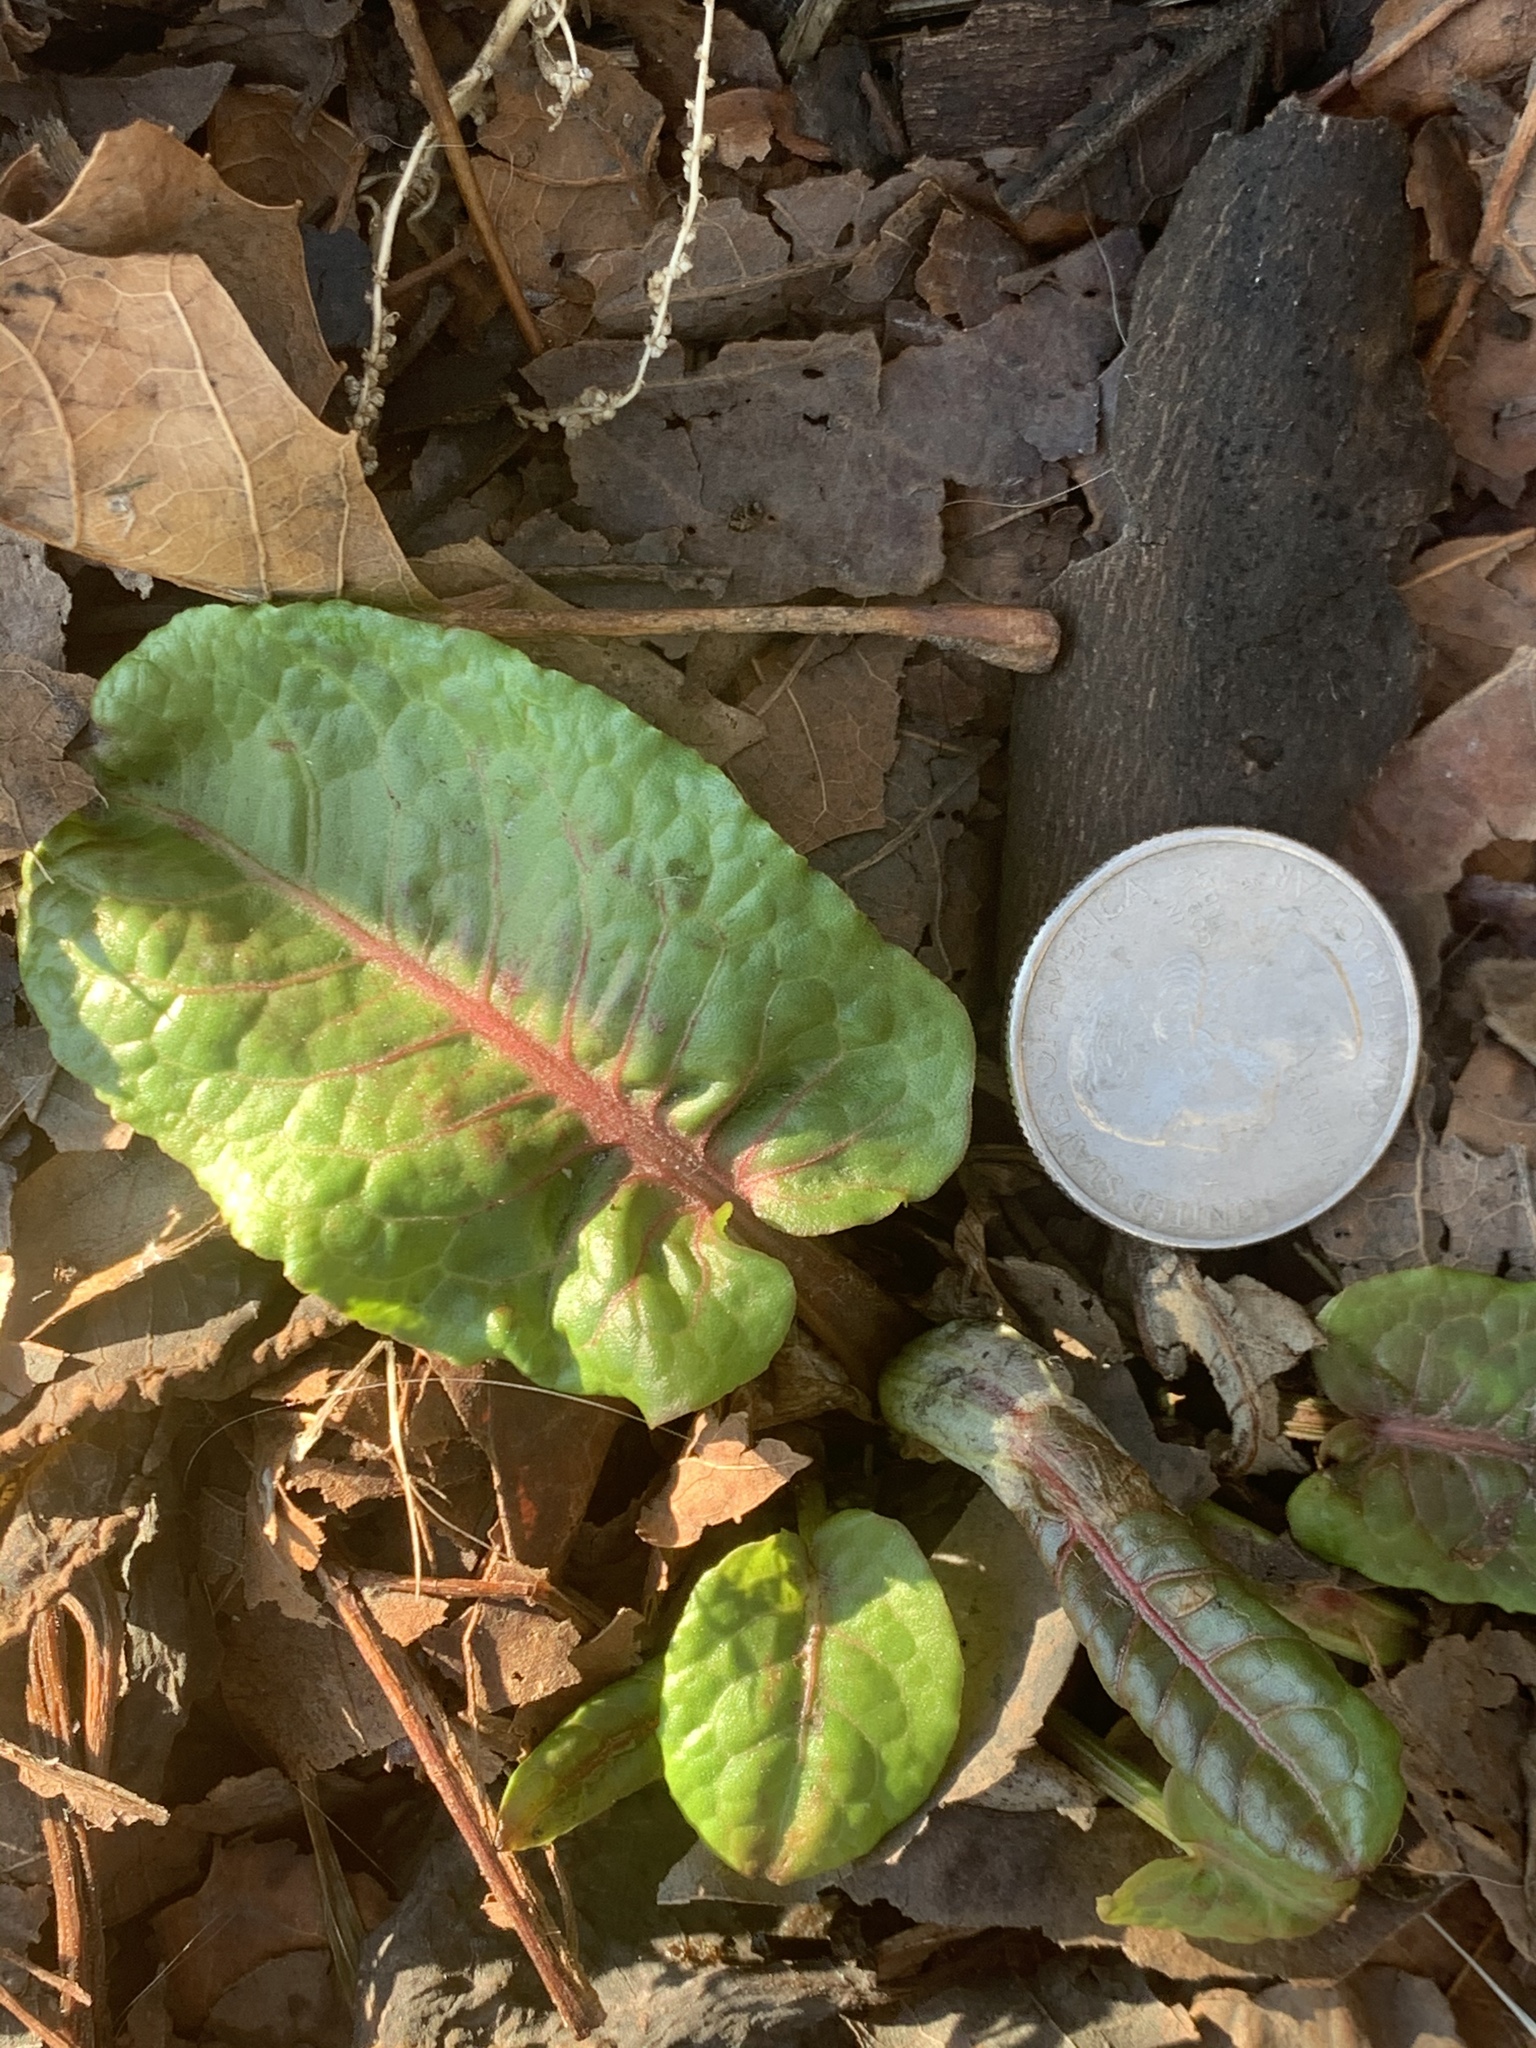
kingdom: Plantae
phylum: Tracheophyta
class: Magnoliopsida
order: Caryophyllales
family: Polygonaceae
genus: Rumex
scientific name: Rumex obtusifolius
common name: Bitter dock
